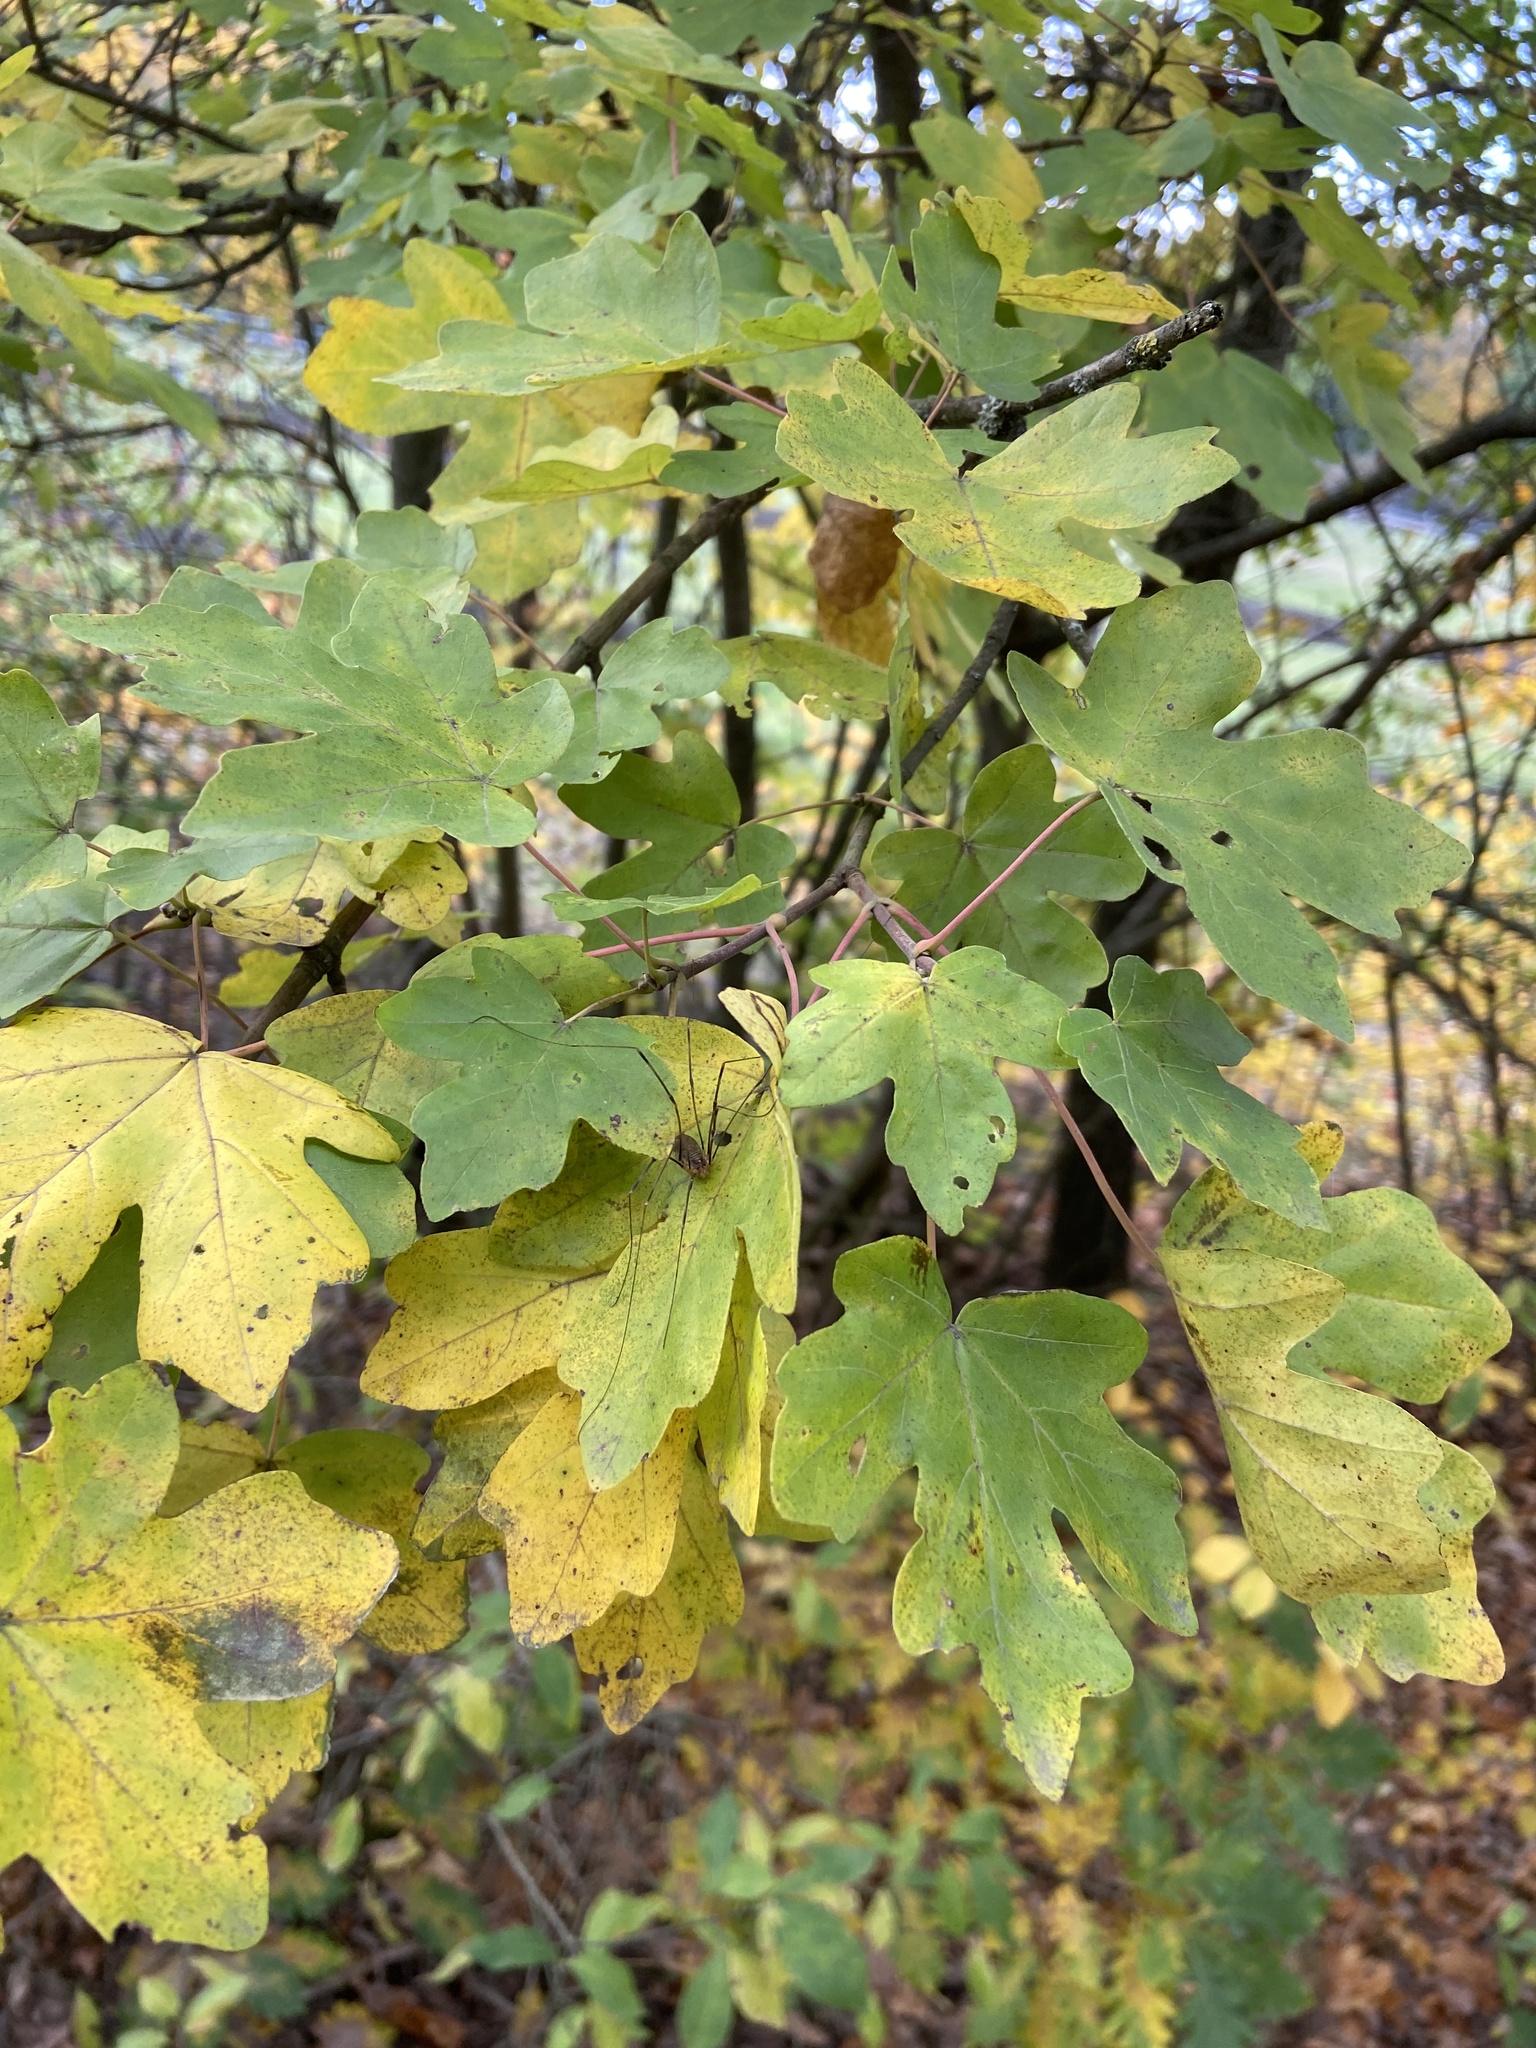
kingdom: Plantae
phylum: Tracheophyta
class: Magnoliopsida
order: Sapindales
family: Sapindaceae
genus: Acer
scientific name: Acer campestre
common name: Field maple
